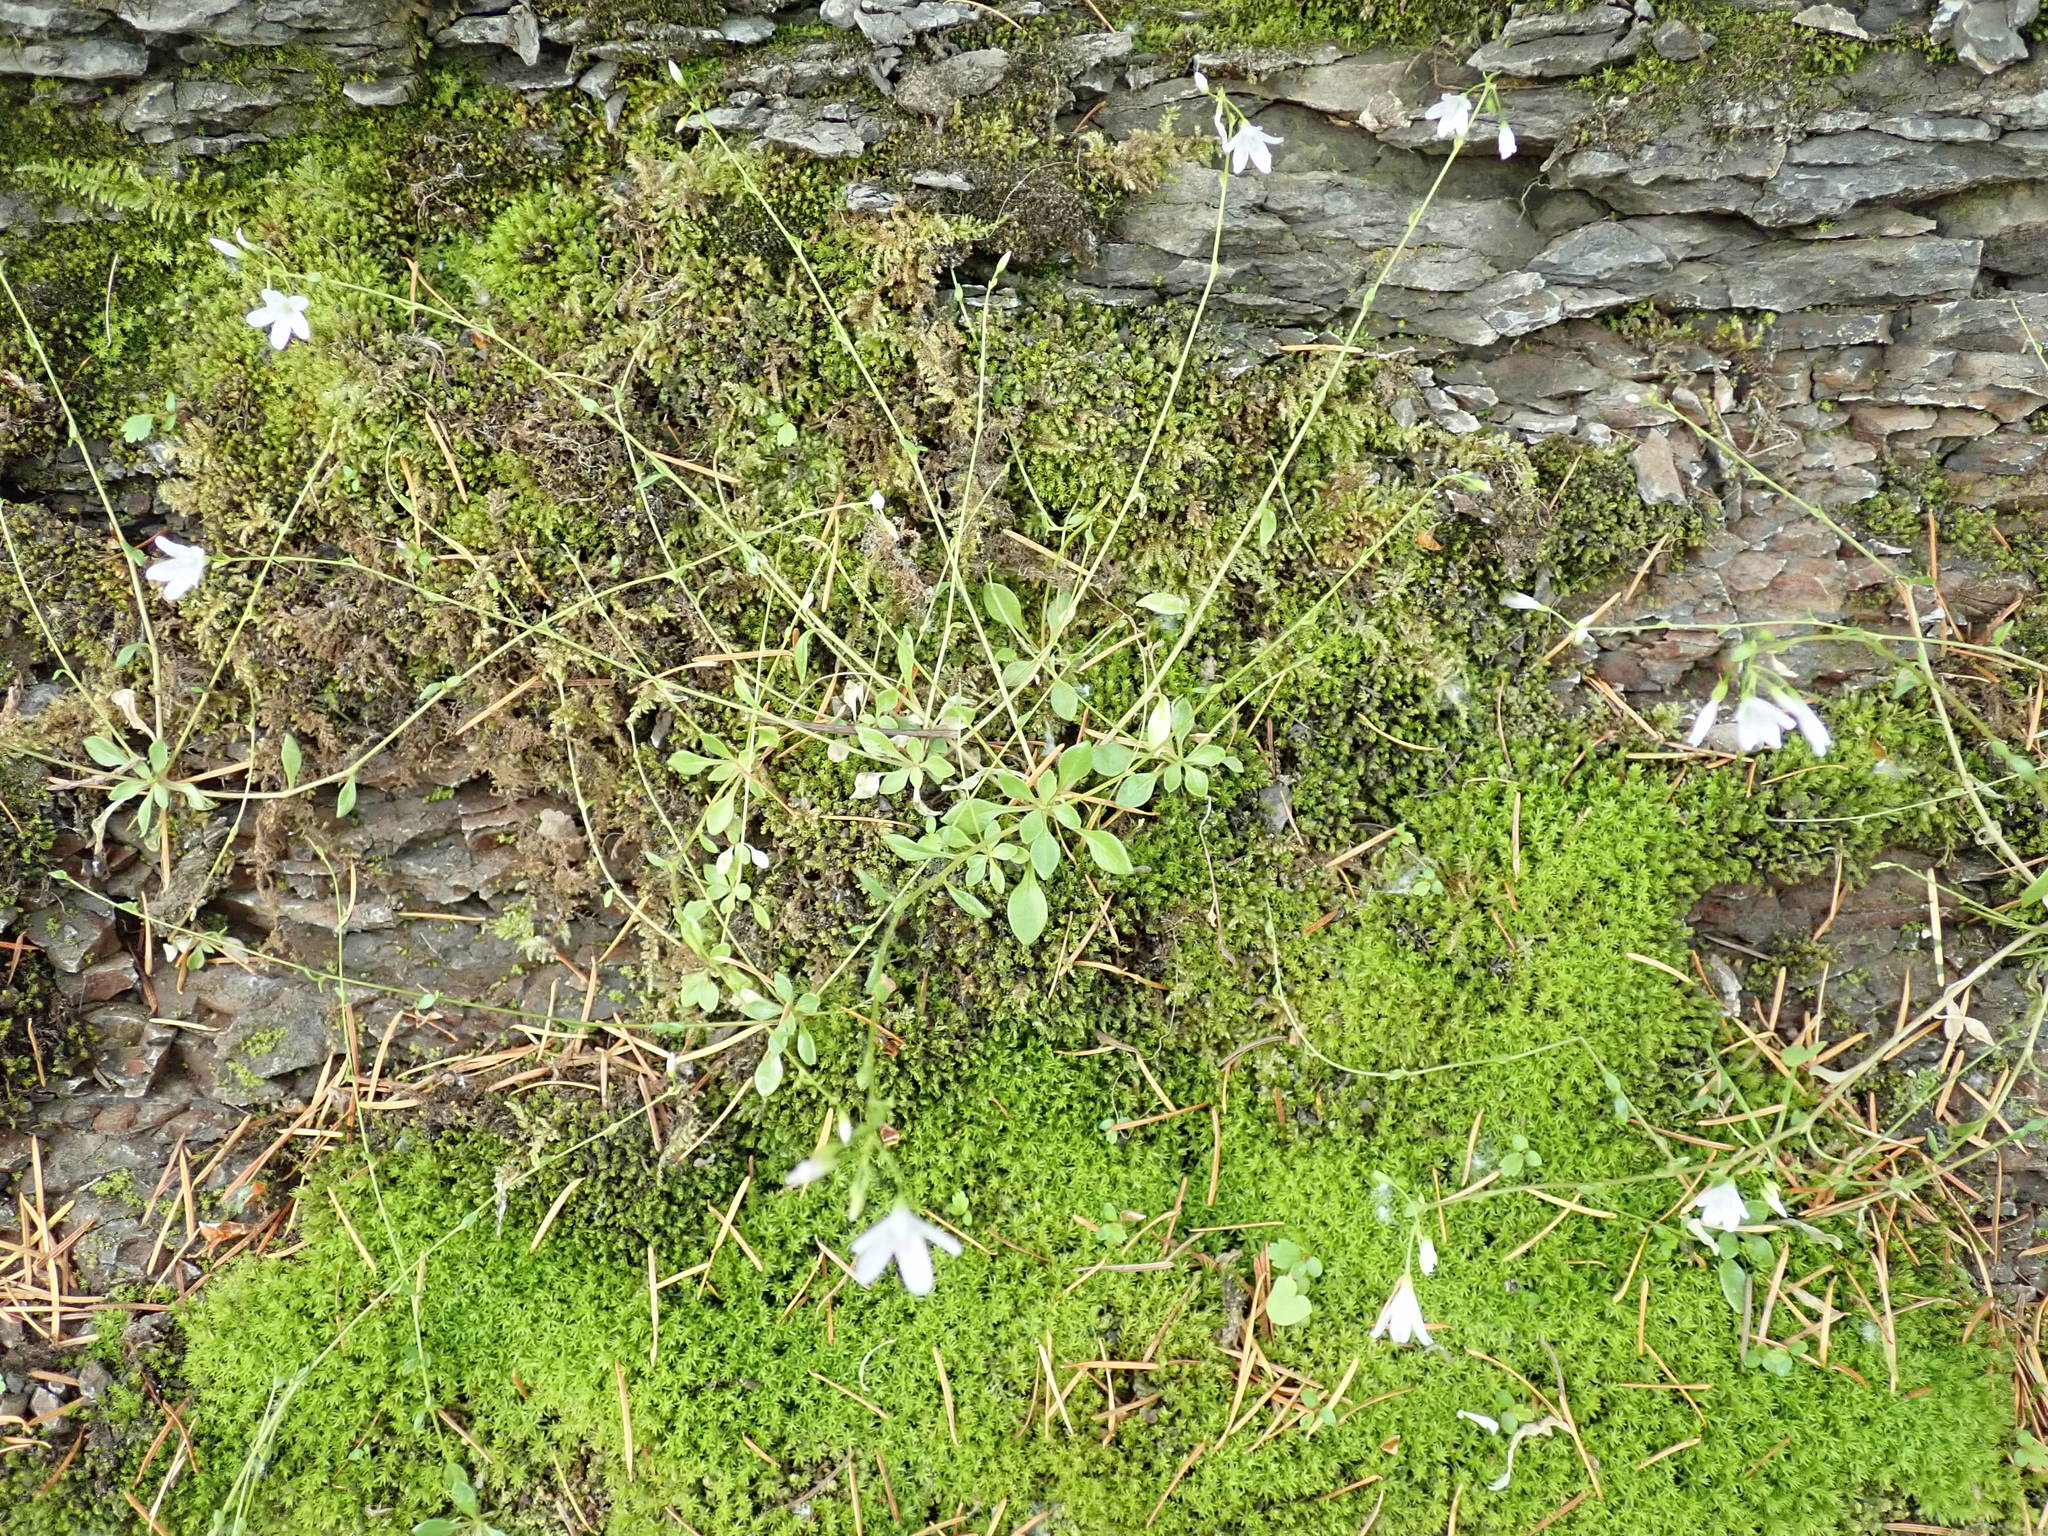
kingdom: Plantae
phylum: Tracheophyta
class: Magnoliopsida
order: Caryophyllales
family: Montiaceae
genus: Montia
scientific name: Montia parvifolia
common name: Small-leaved blinks
